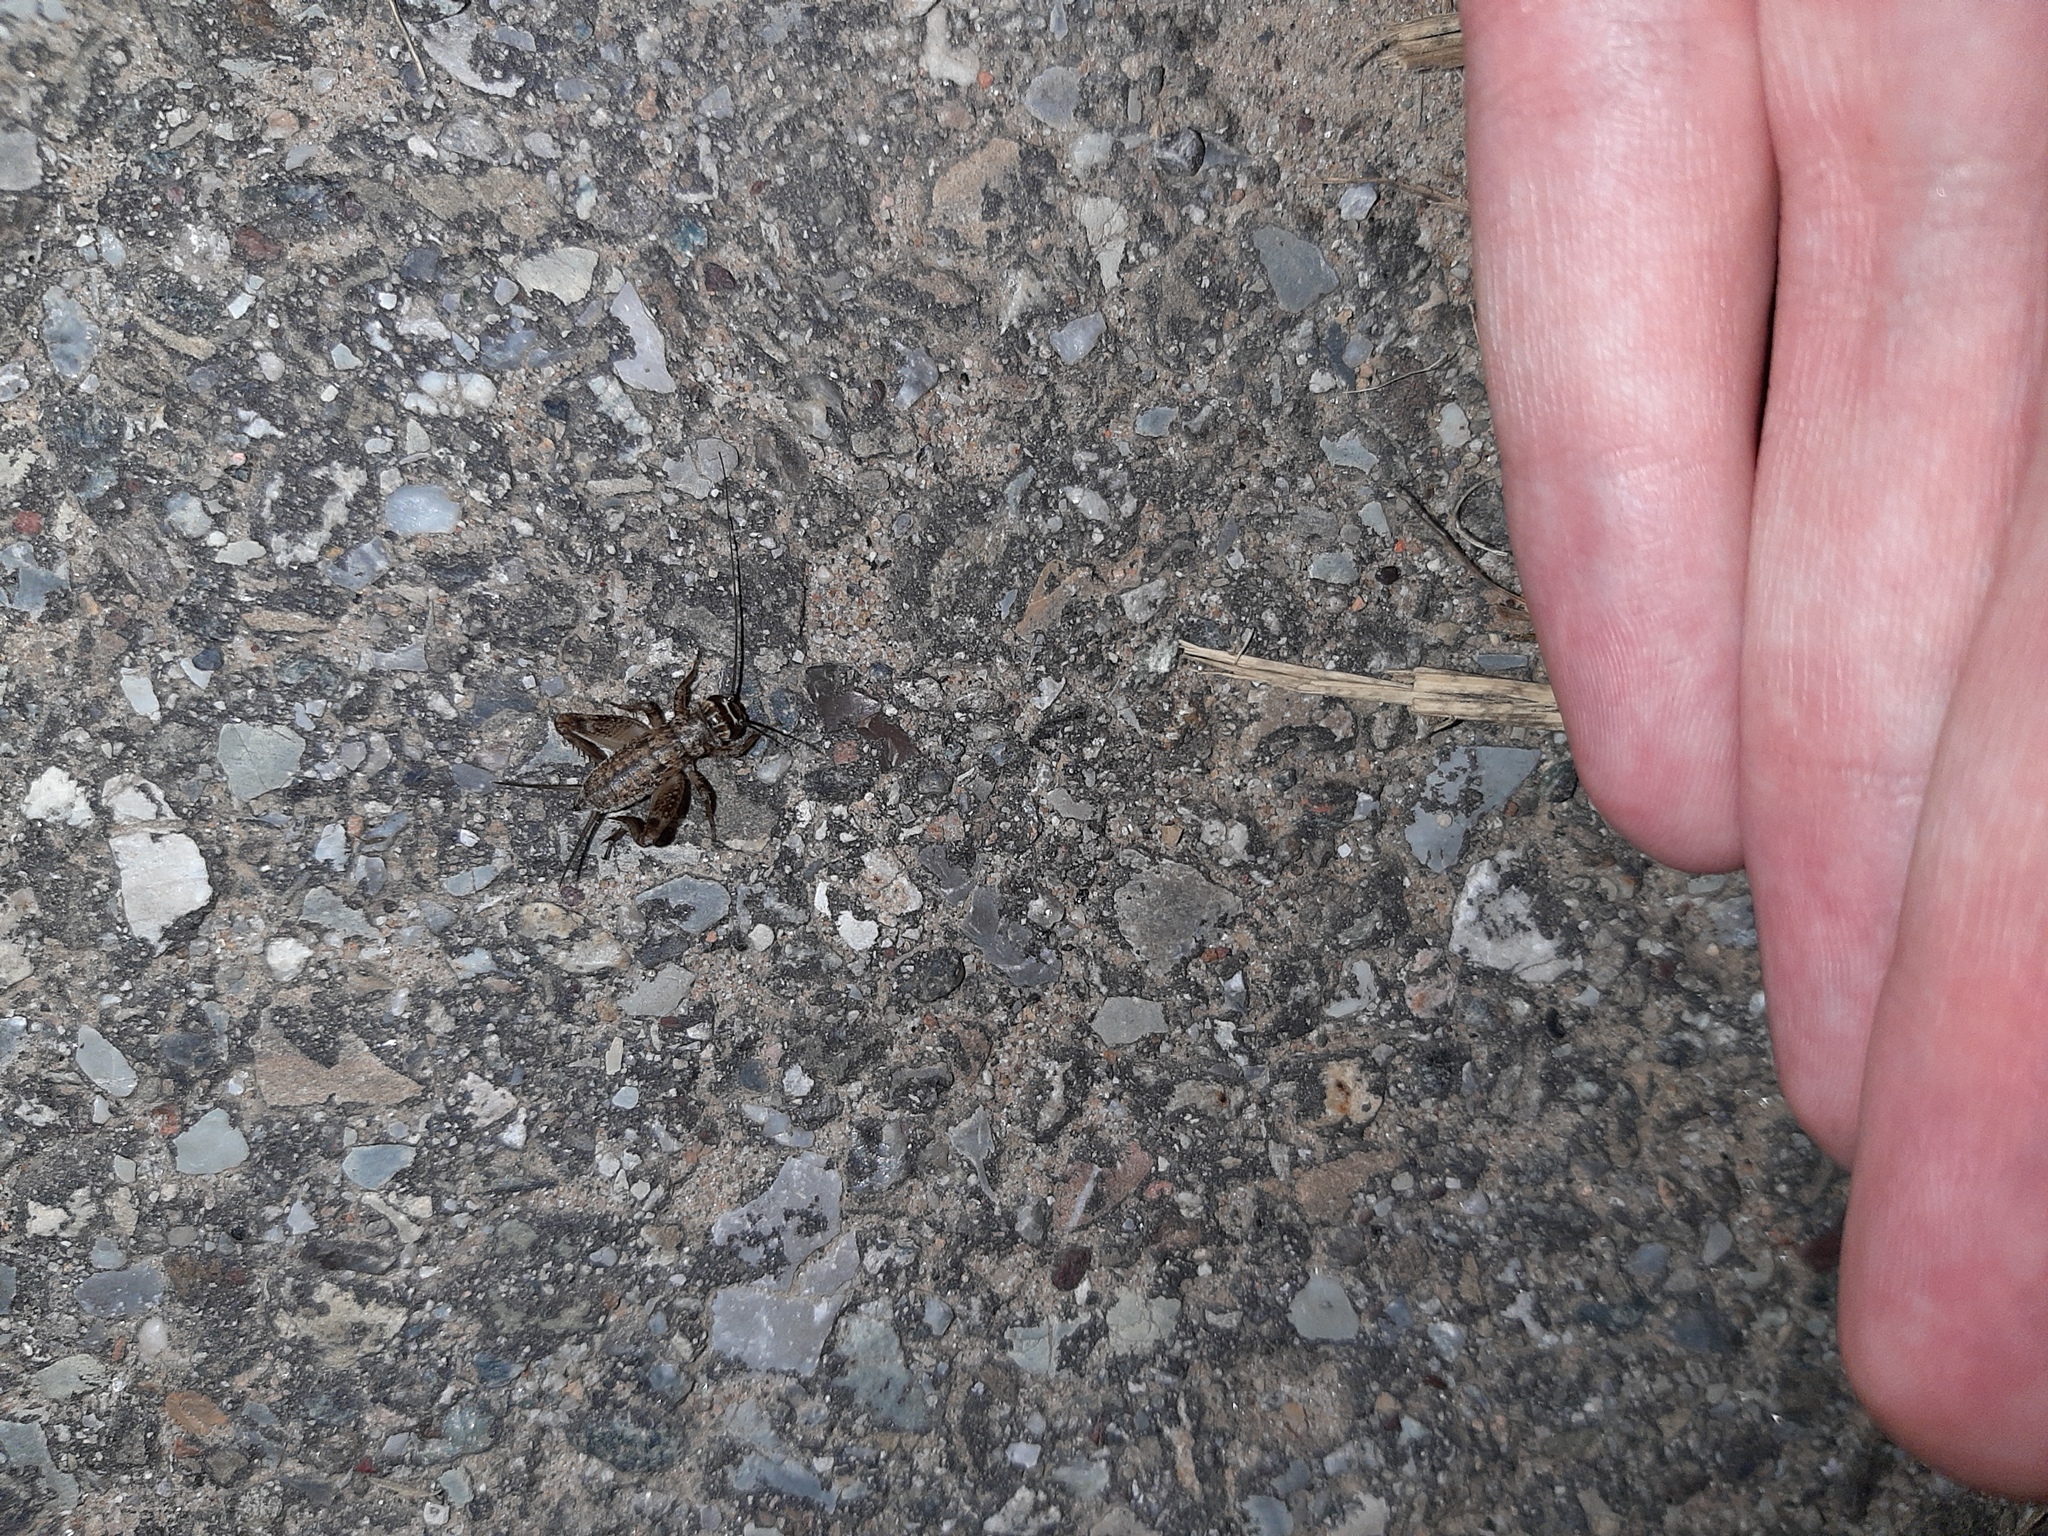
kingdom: Animalia
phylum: Arthropoda
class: Insecta
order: Orthoptera
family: Gryllidae
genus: Eumodicogryllus
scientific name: Eumodicogryllus bordigalensis
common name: Bordeaux cricket
